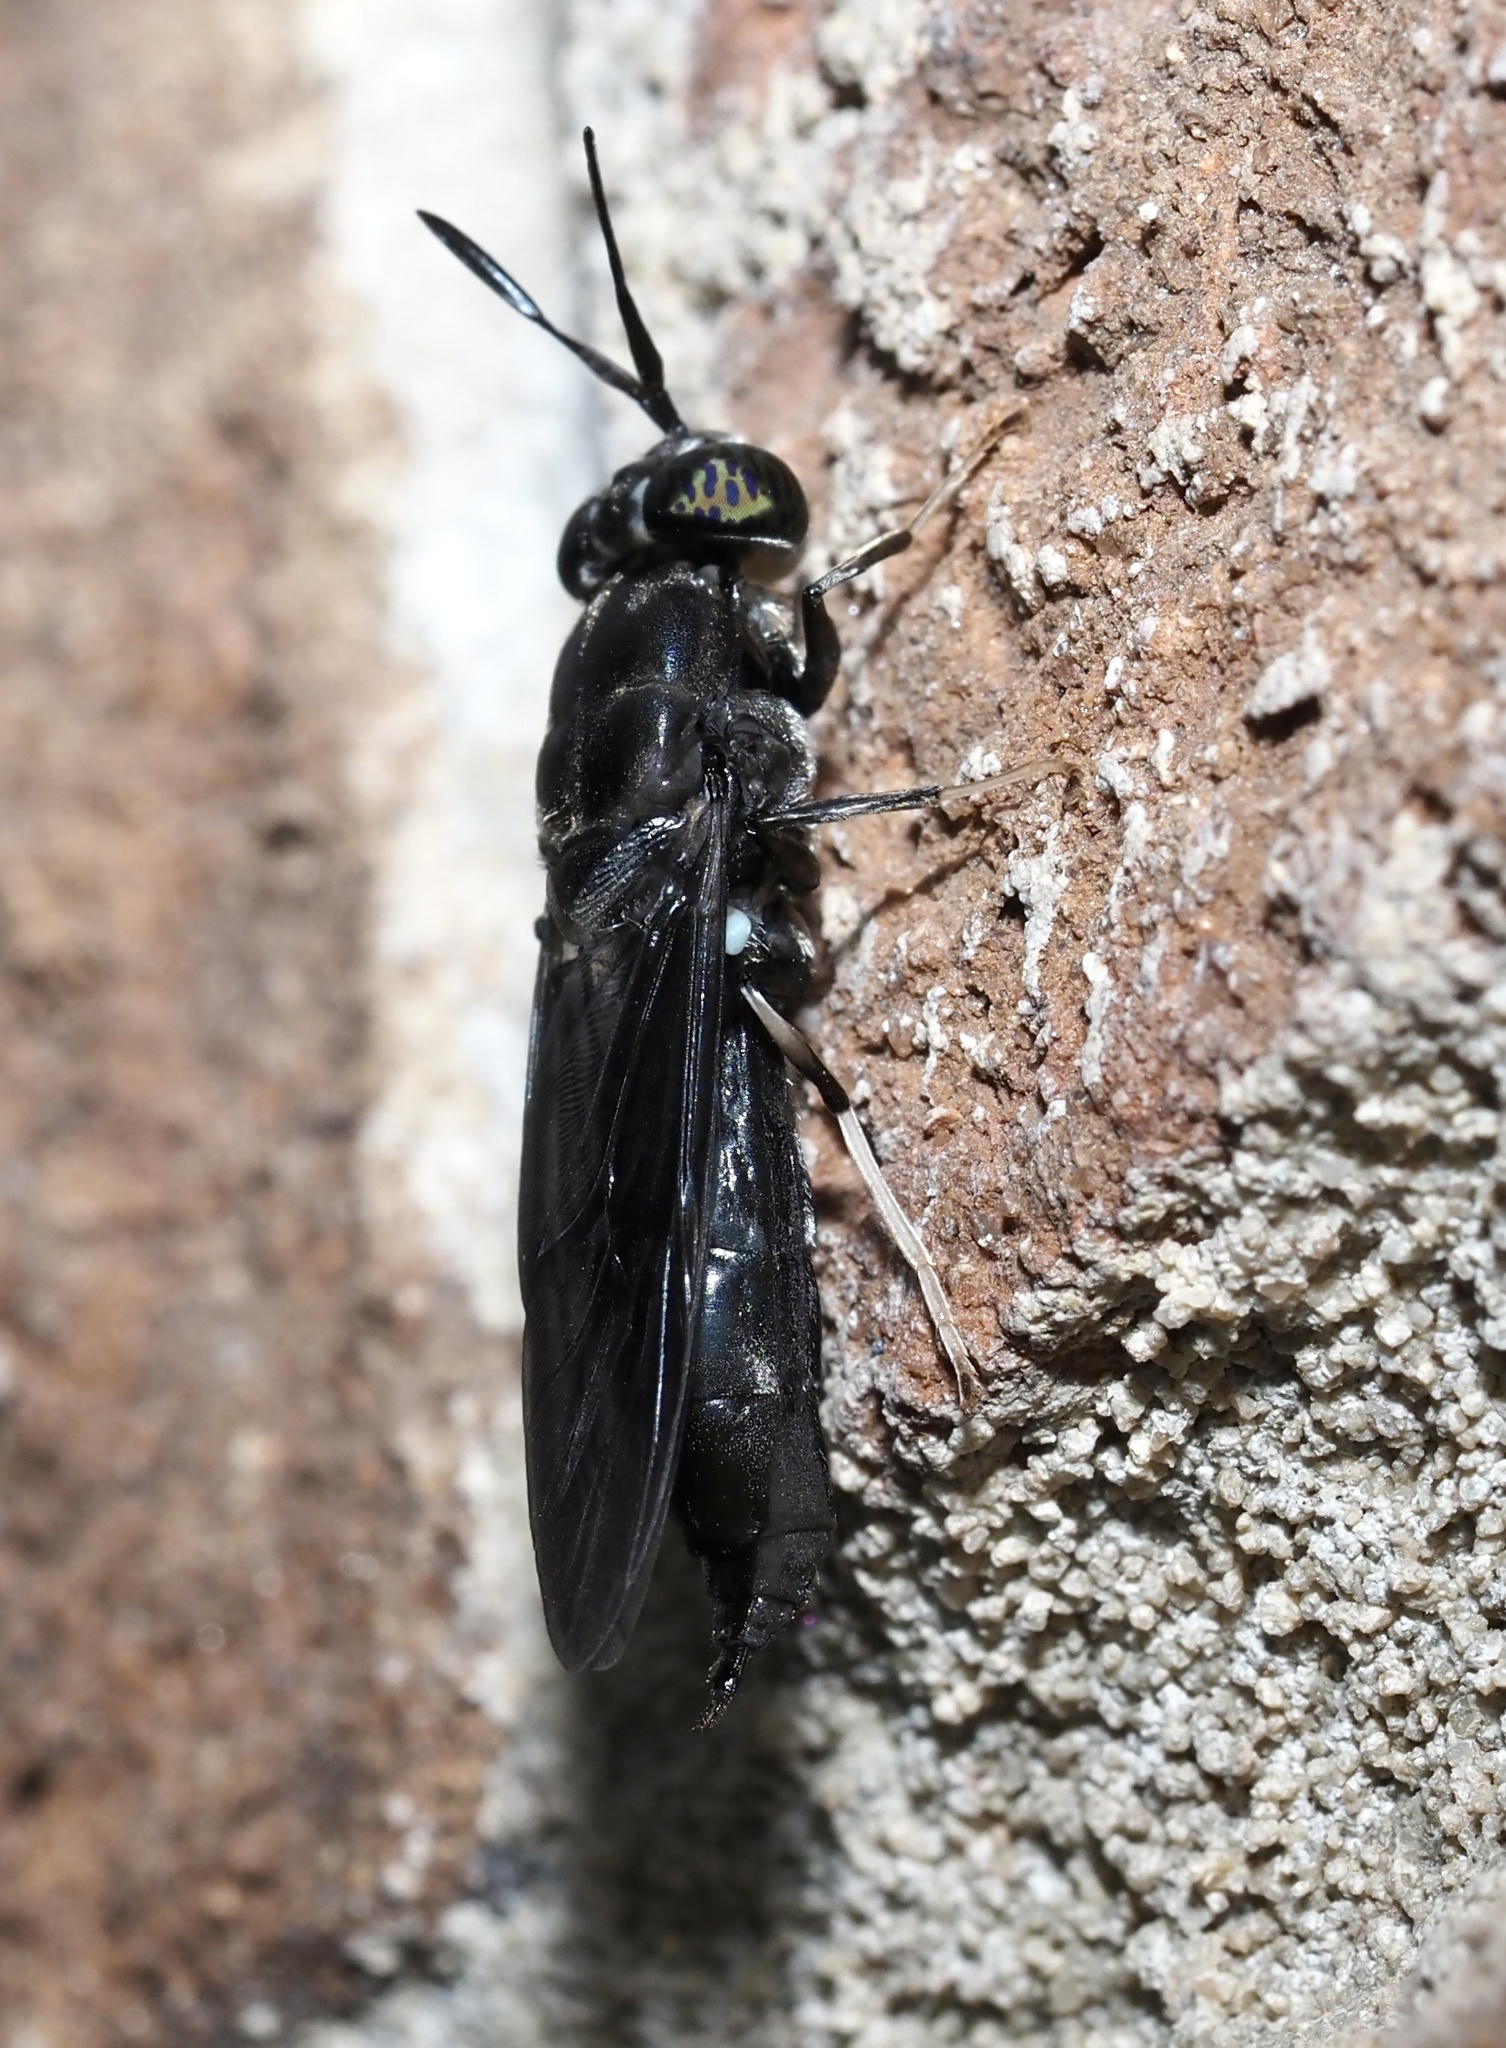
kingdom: Animalia
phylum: Arthropoda
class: Insecta
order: Diptera
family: Stratiomyidae
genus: Hermetia
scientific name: Hermetia illucens
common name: Black soldier fly
